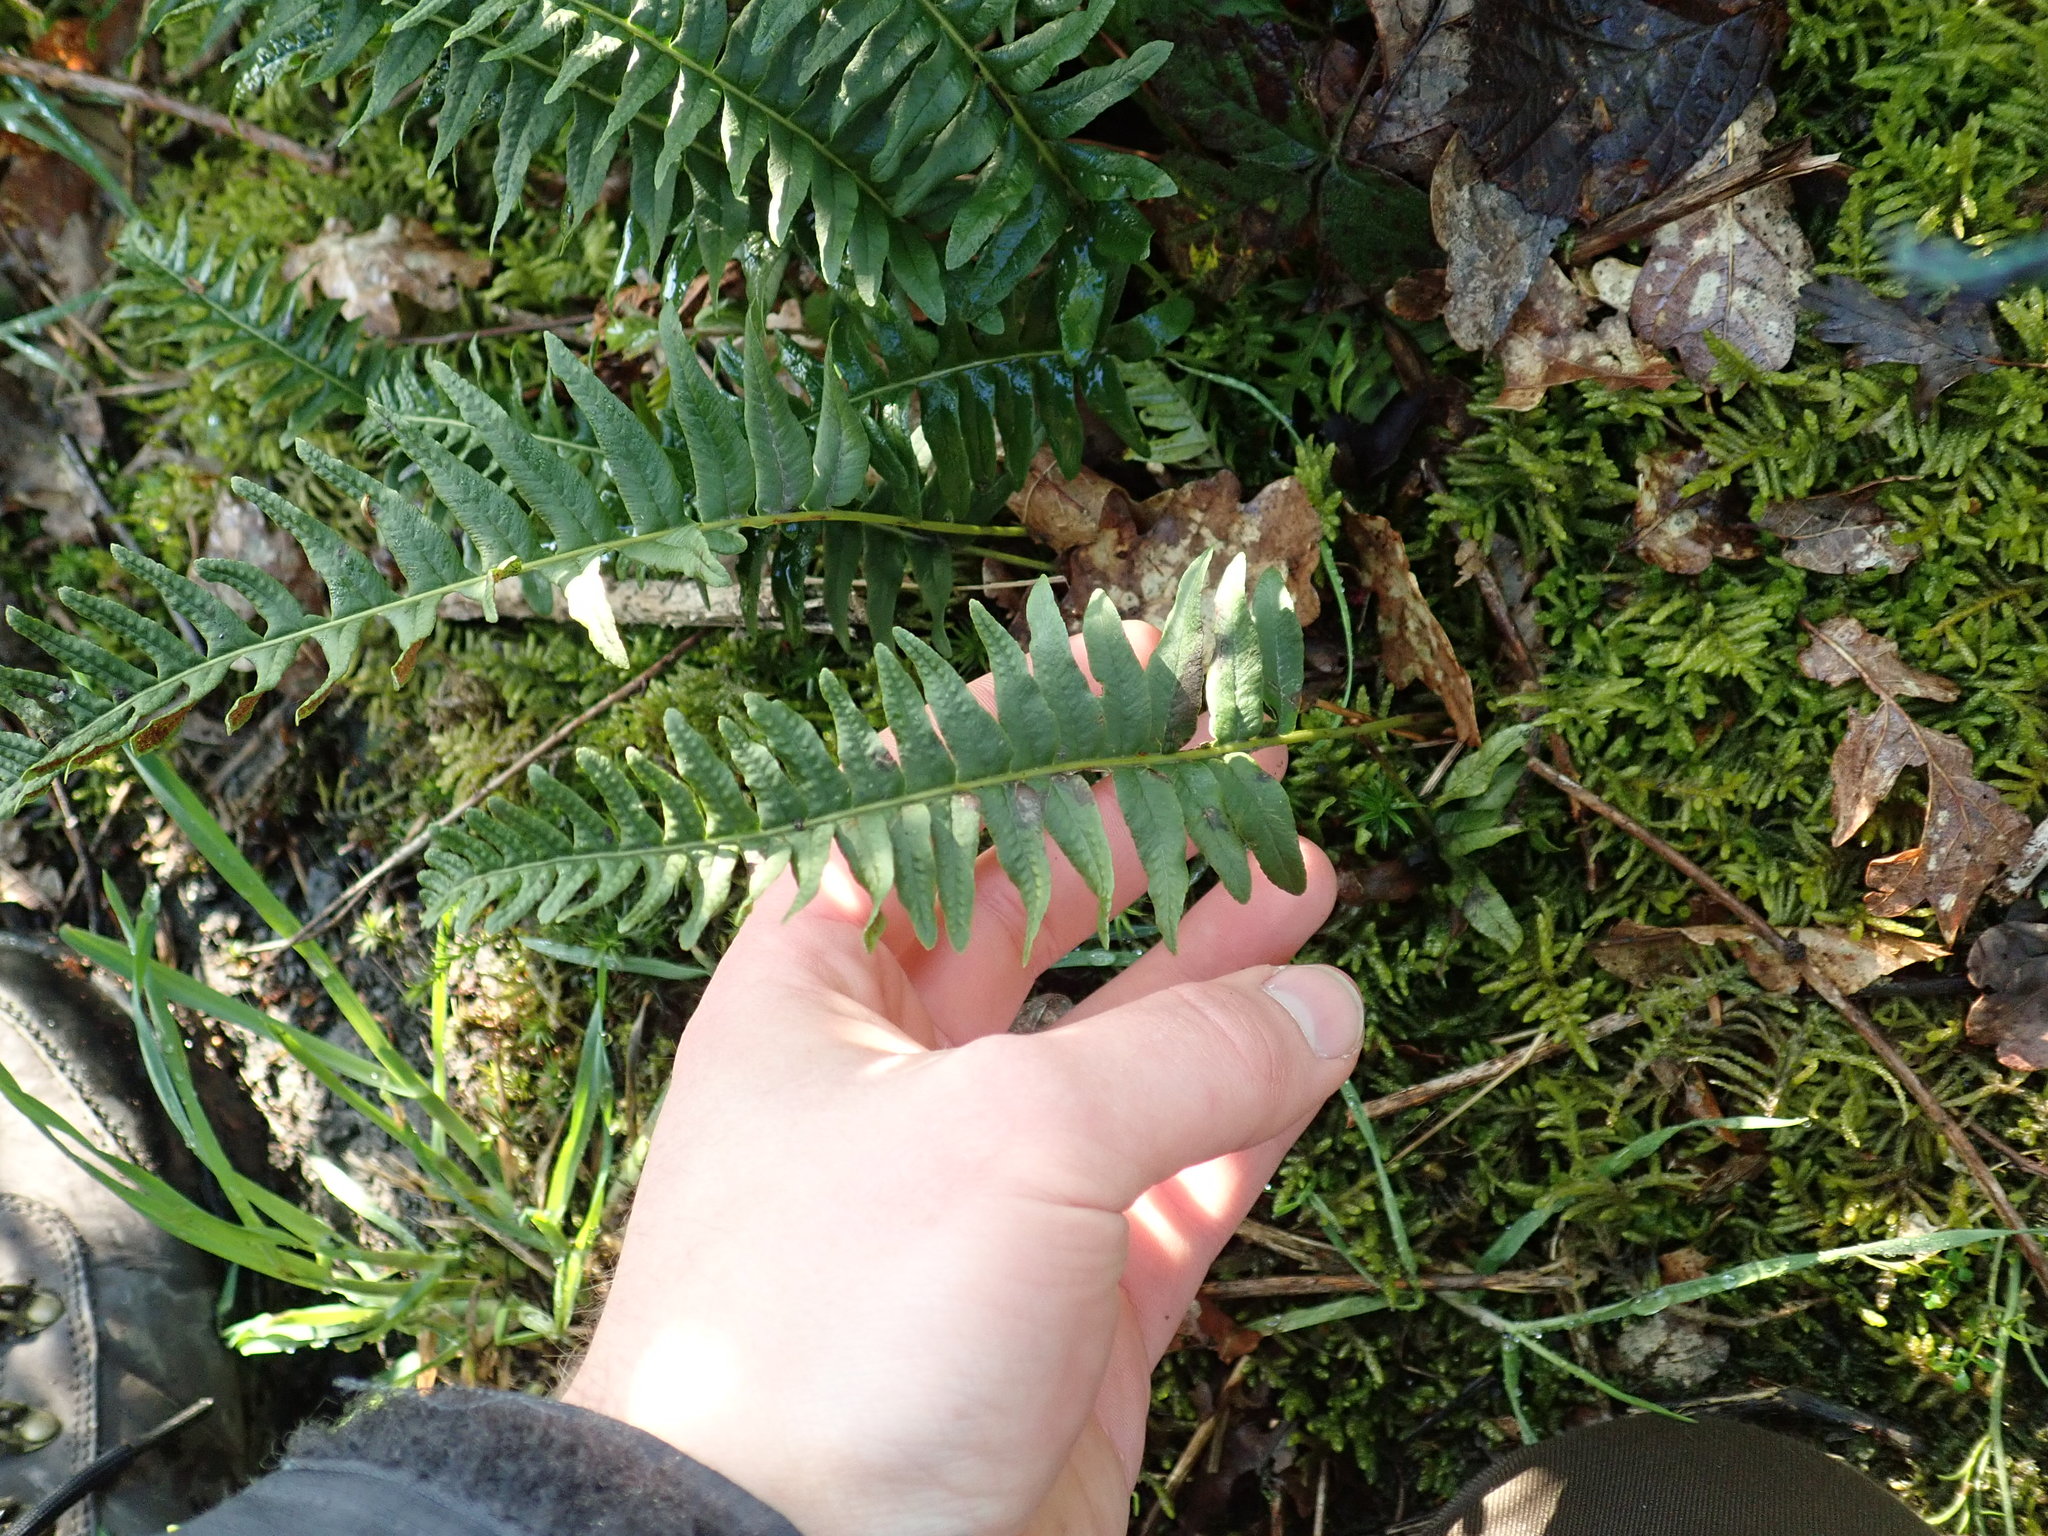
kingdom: Plantae
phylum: Tracheophyta
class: Polypodiopsida
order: Polypodiales
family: Polypodiaceae
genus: Polypodium
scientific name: Polypodium vulgare
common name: Common polypody
